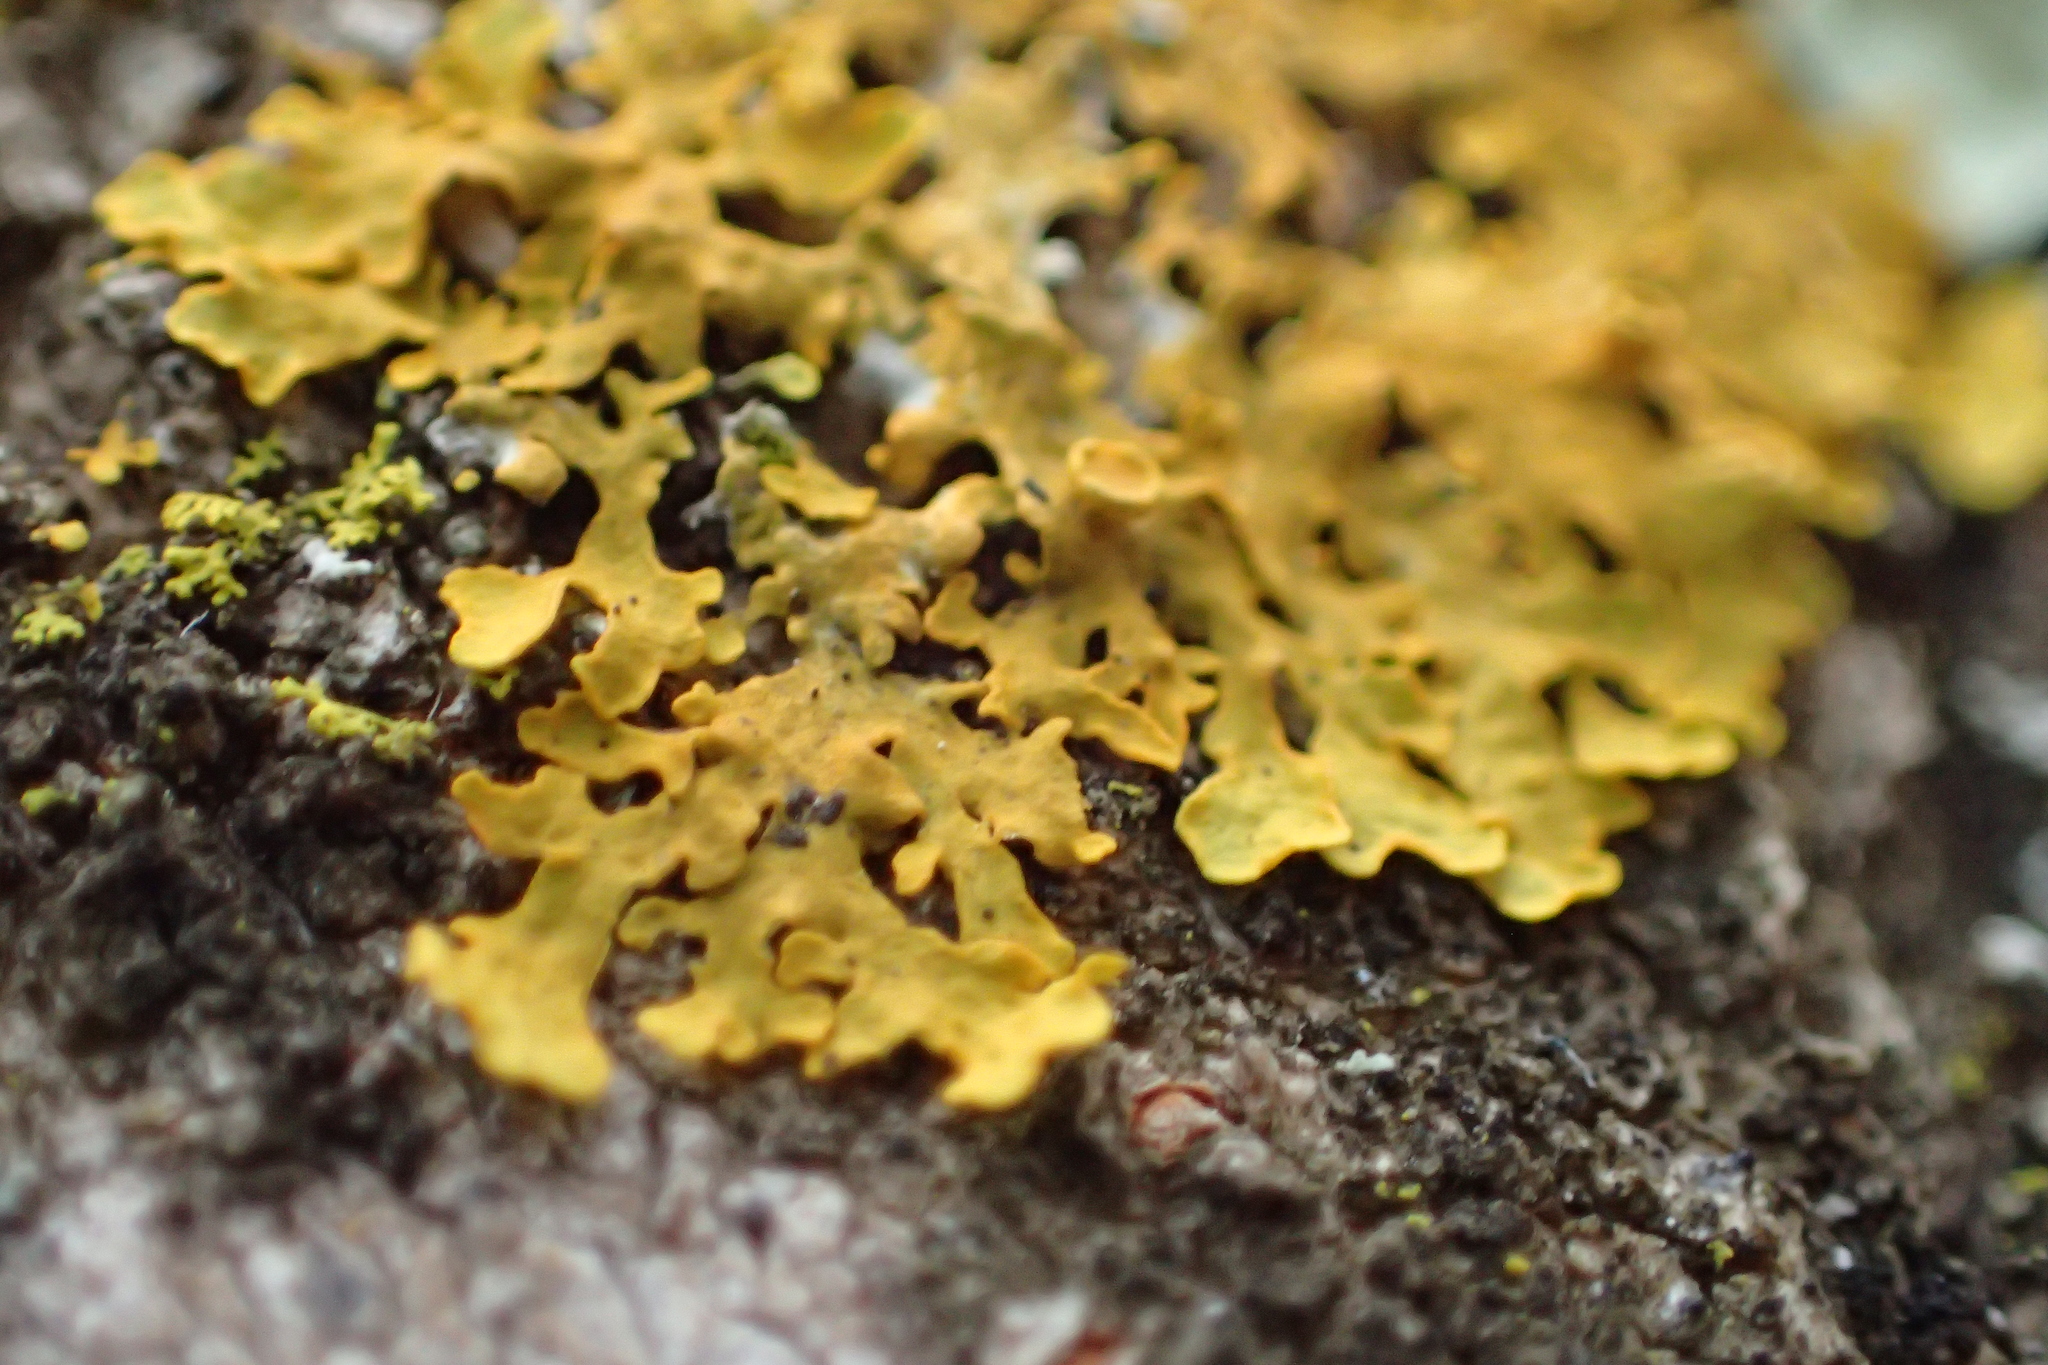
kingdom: Fungi
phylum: Ascomycota
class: Lecanoromycetes
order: Teloschistales
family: Teloschistaceae
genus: Xanthoria
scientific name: Xanthoria parietina
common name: Common orange lichen
